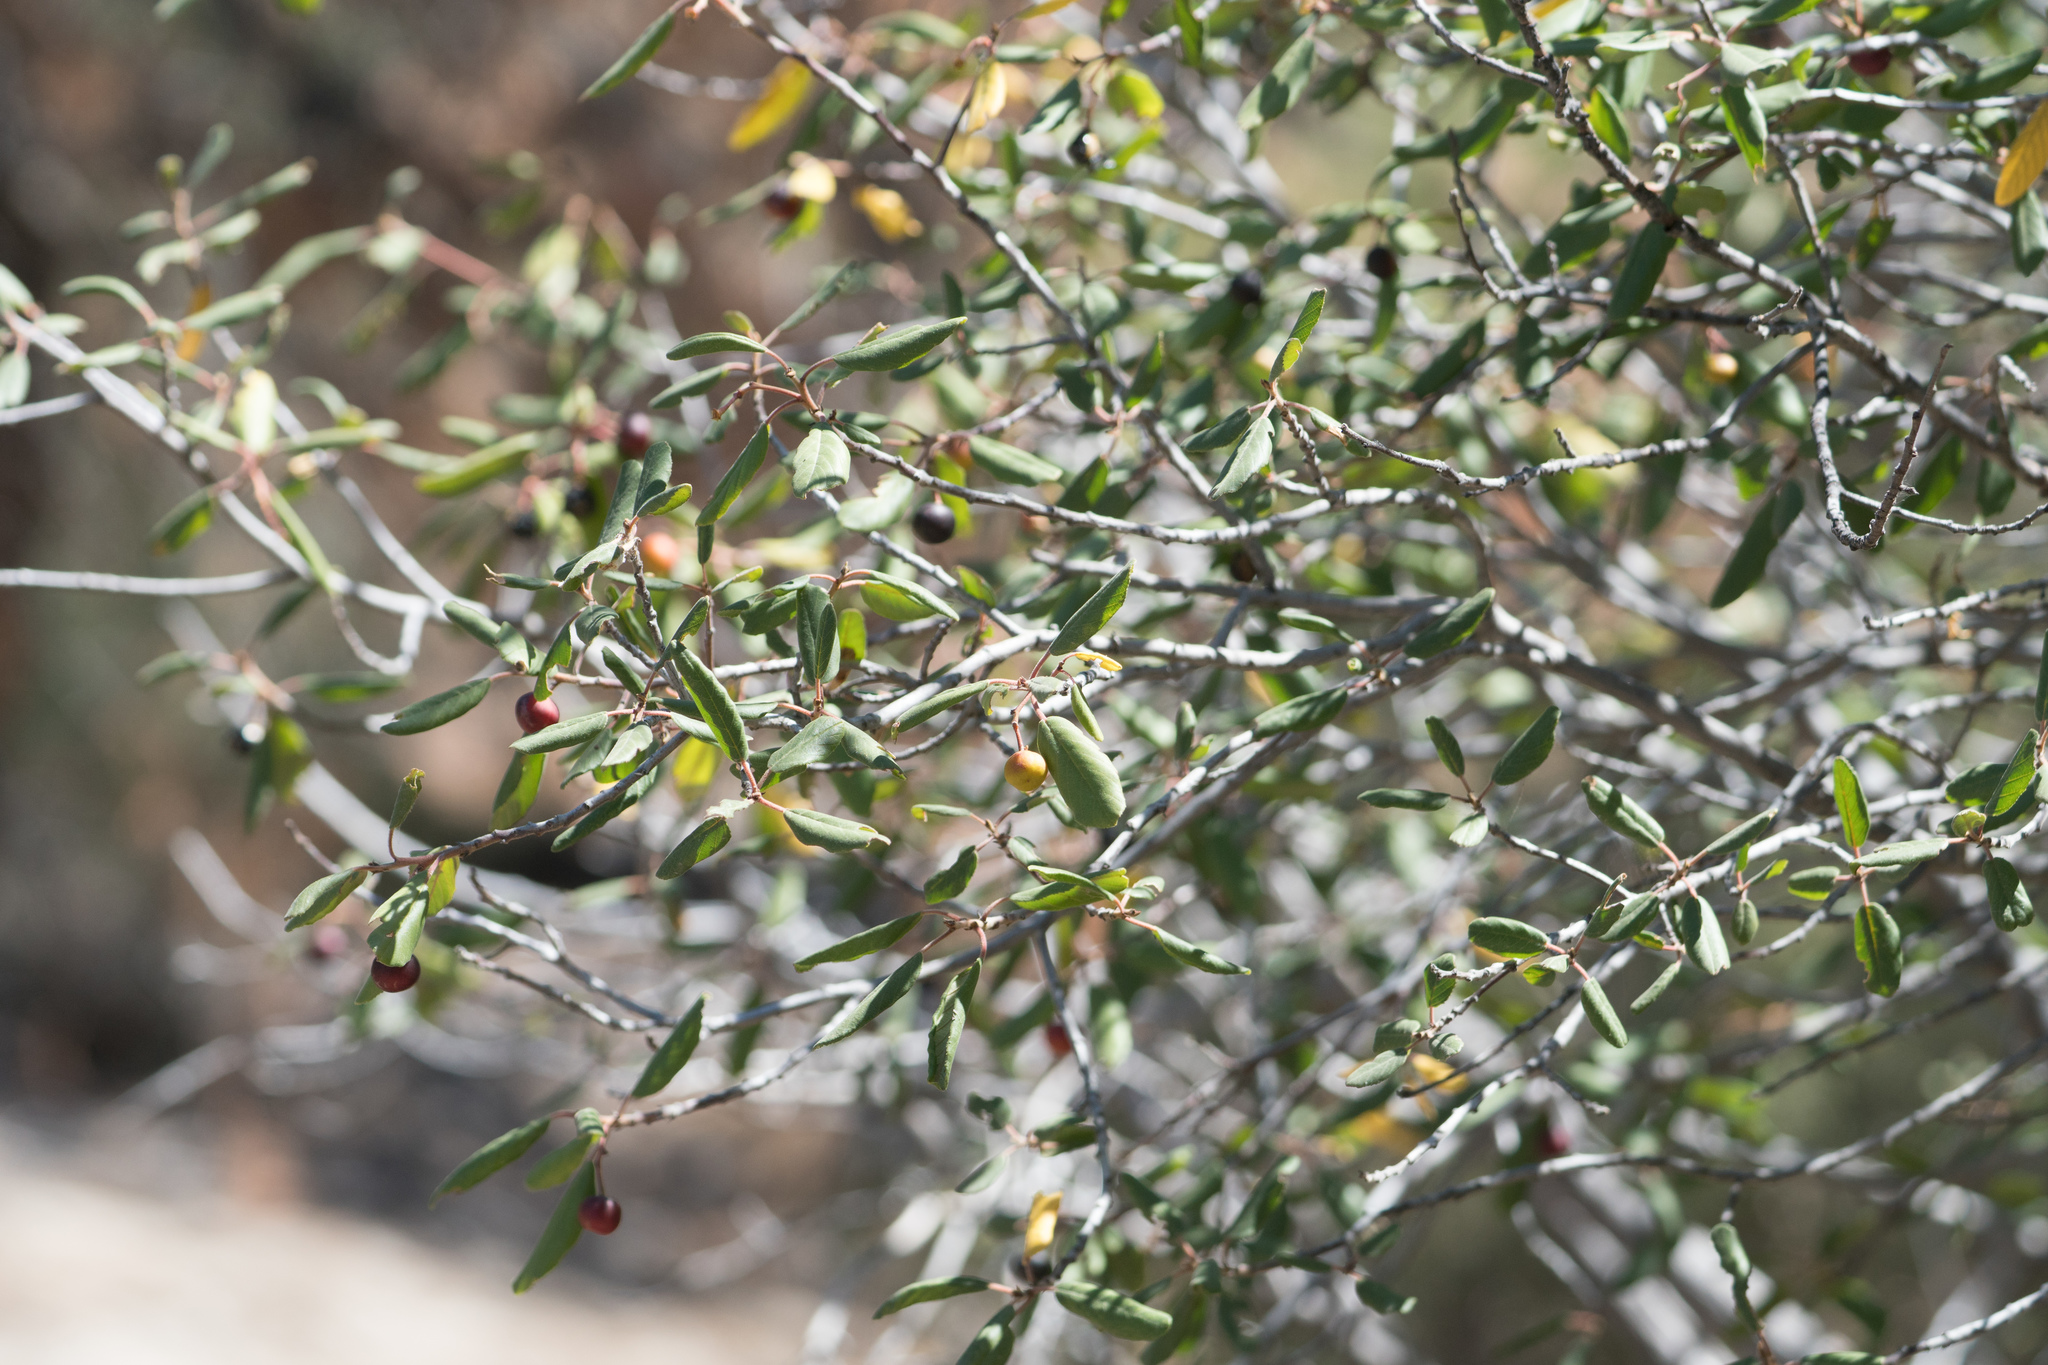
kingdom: Plantae
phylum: Tracheophyta
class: Magnoliopsida
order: Rosales
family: Rhamnaceae
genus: Frangula
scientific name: Frangula californica
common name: California buckthorn
